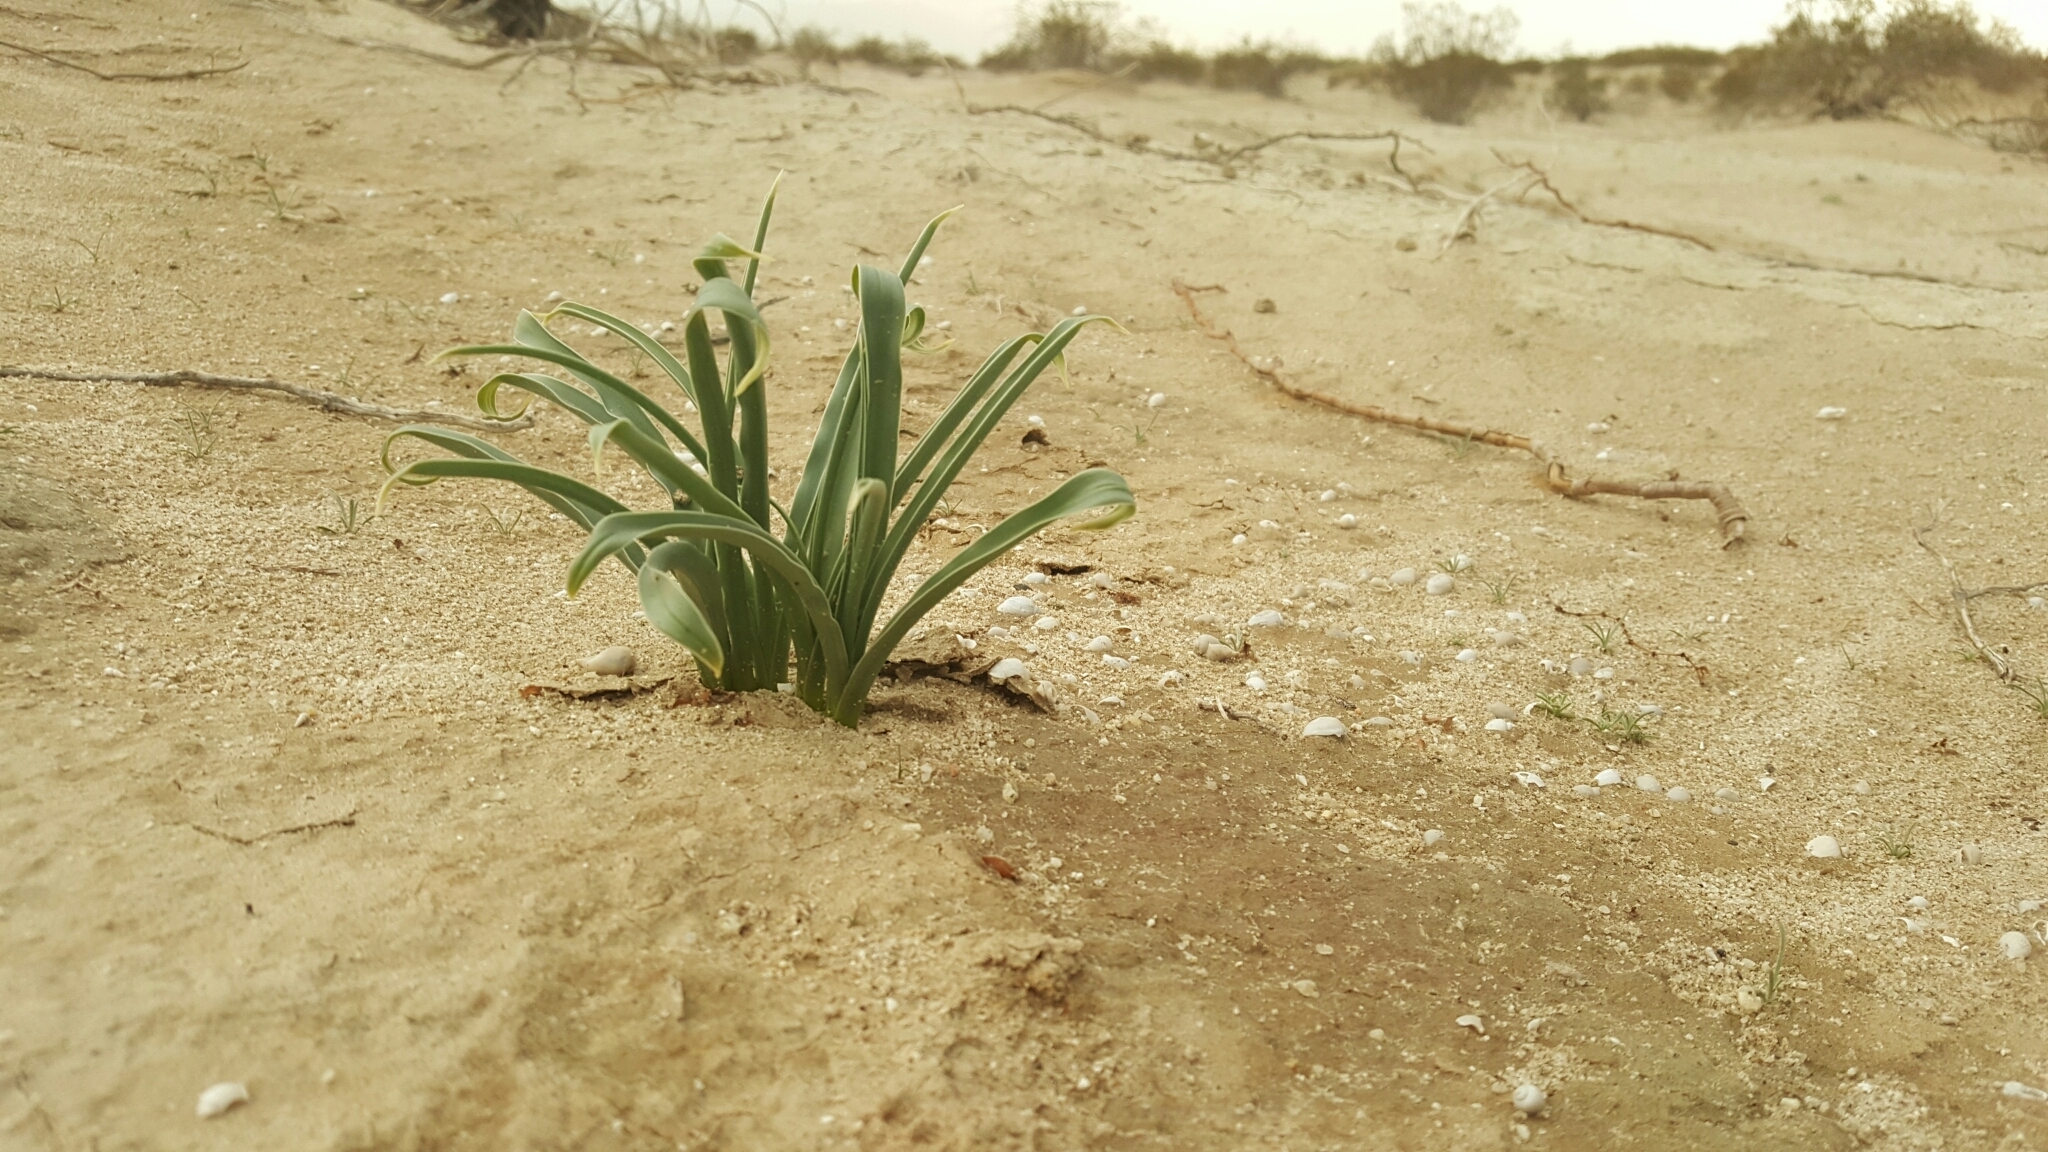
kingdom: Plantae
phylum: Tracheophyta
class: Liliopsida
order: Asparagales
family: Asparagaceae
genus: Hesperocallis
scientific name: Hesperocallis undulata
